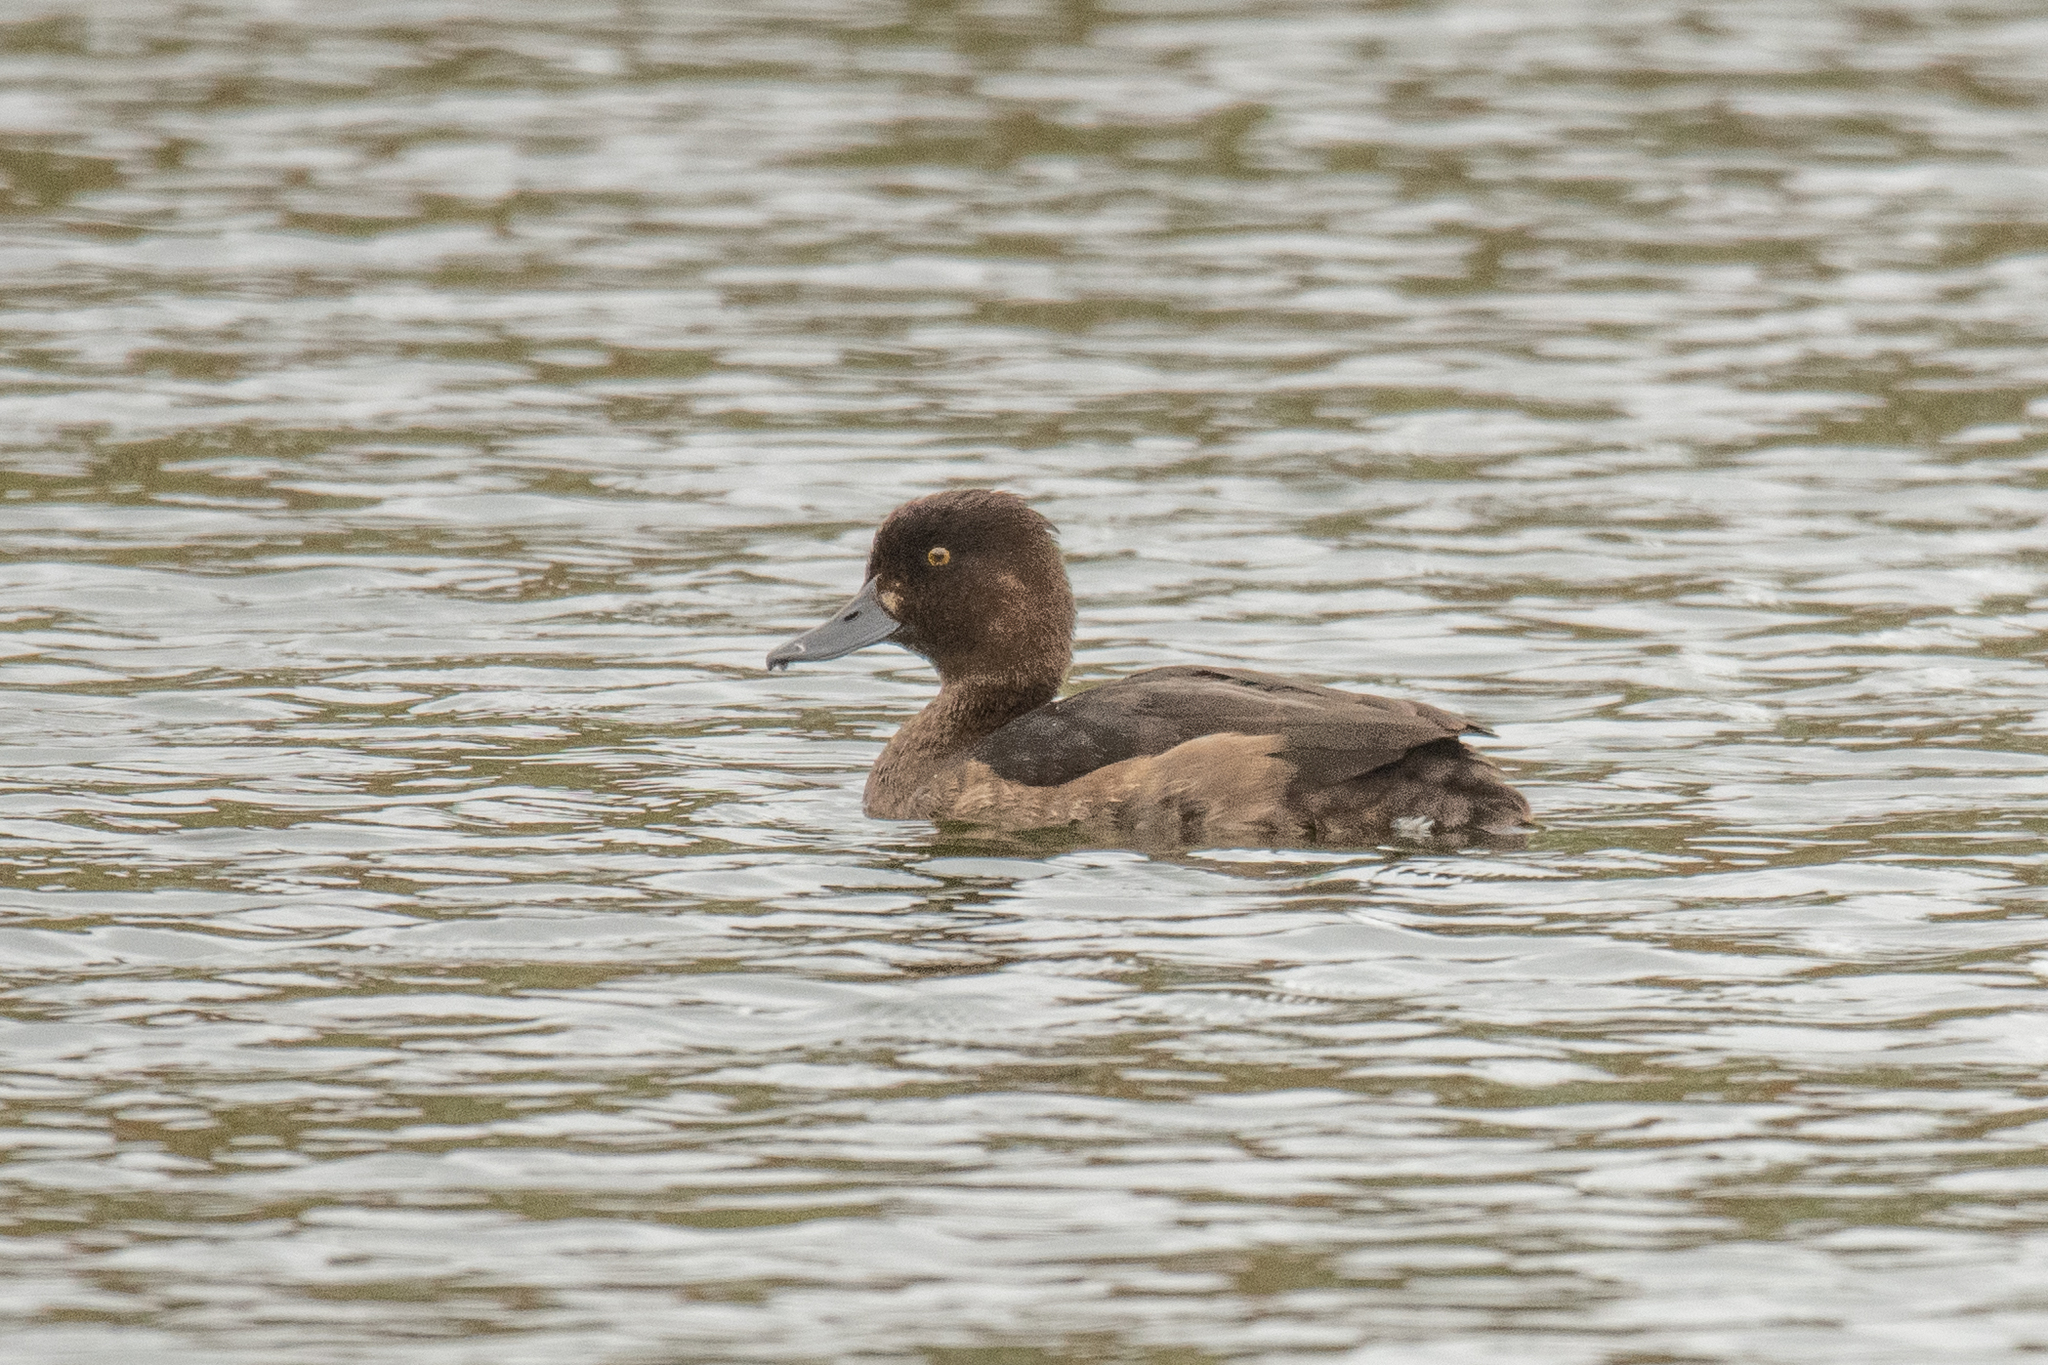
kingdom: Animalia
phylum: Chordata
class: Aves
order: Anseriformes
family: Anatidae
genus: Aythya
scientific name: Aythya fuligula
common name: Tufted duck
